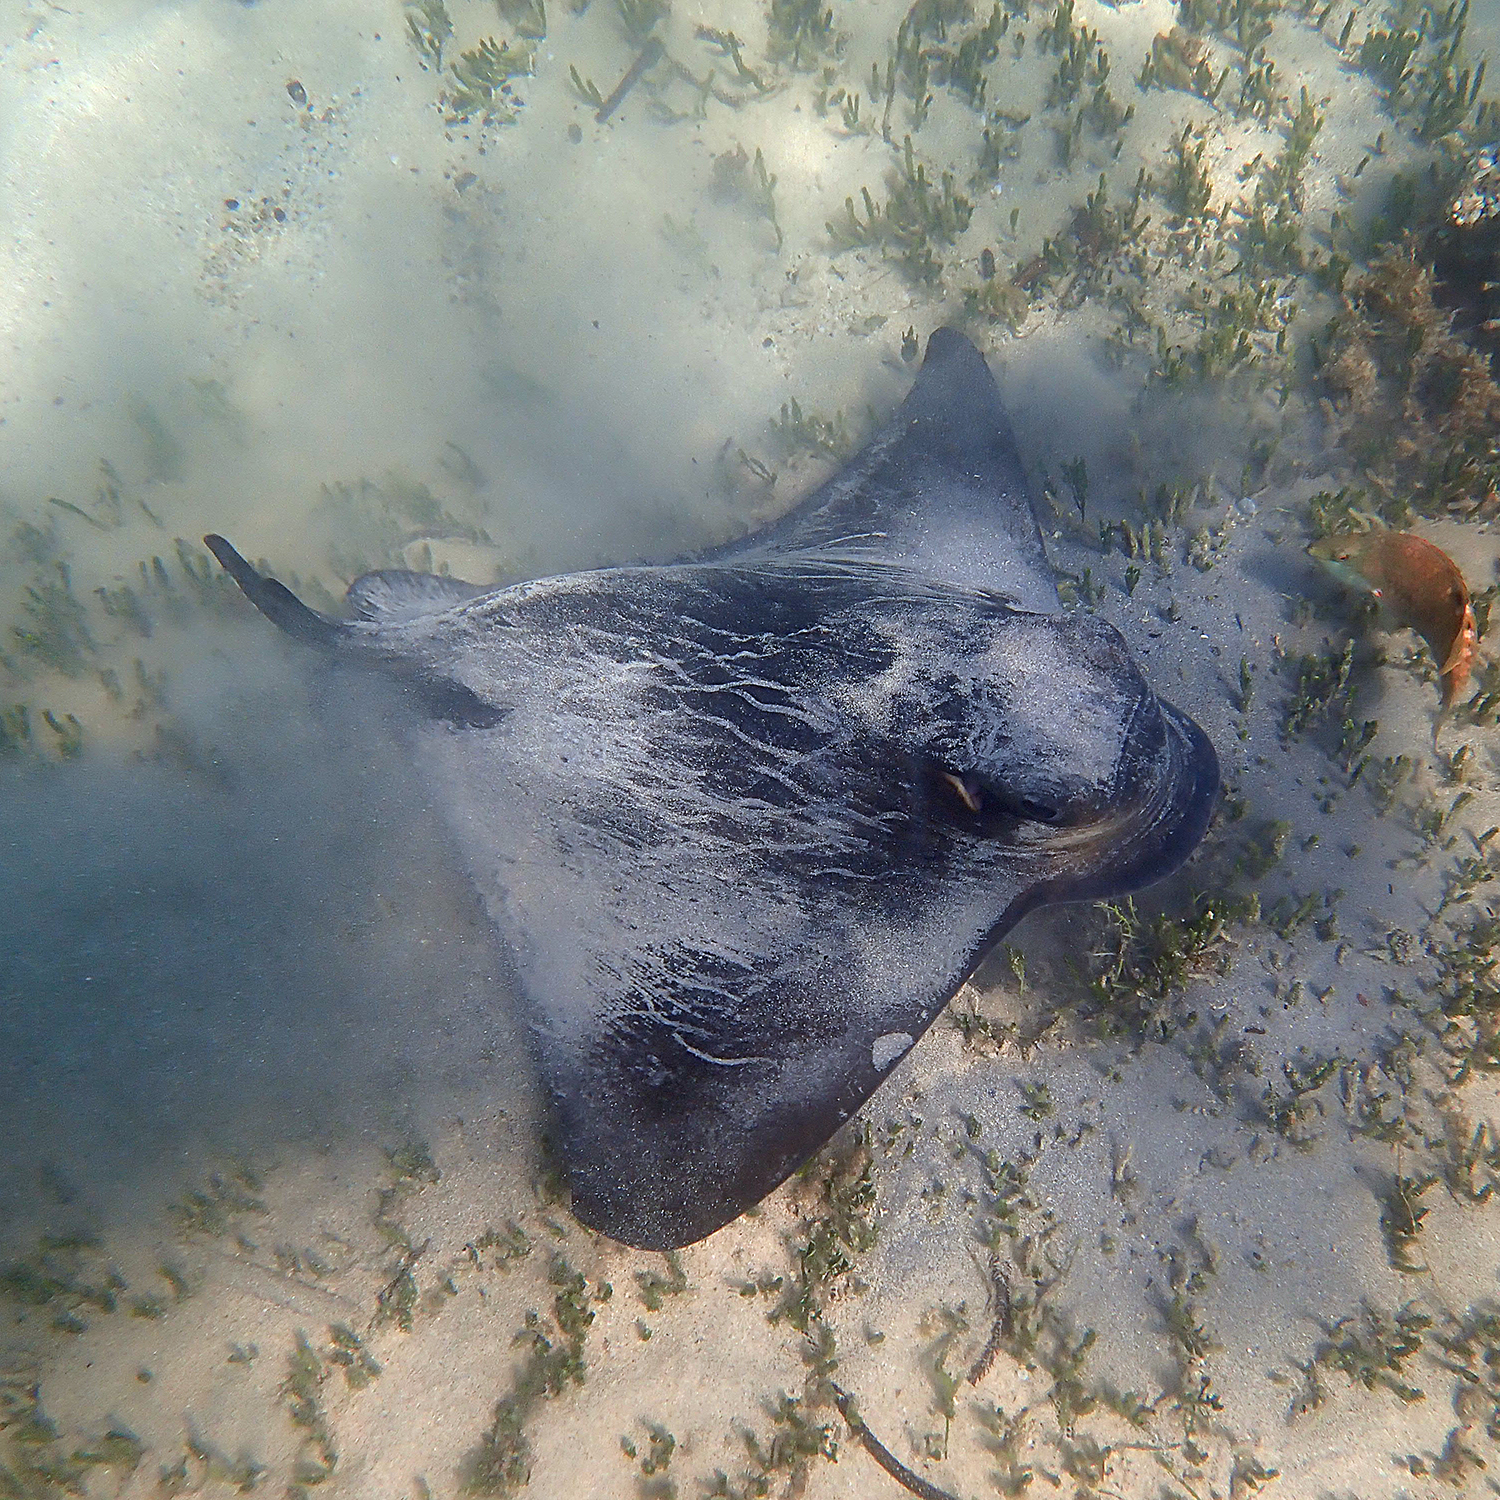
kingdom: Animalia
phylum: Chordata
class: Elasmobranchii
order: Myliobatiformes
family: Myliobatidae
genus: Myliobatis
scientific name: Myliobatis tenuicaudatus
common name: Eagle ray
